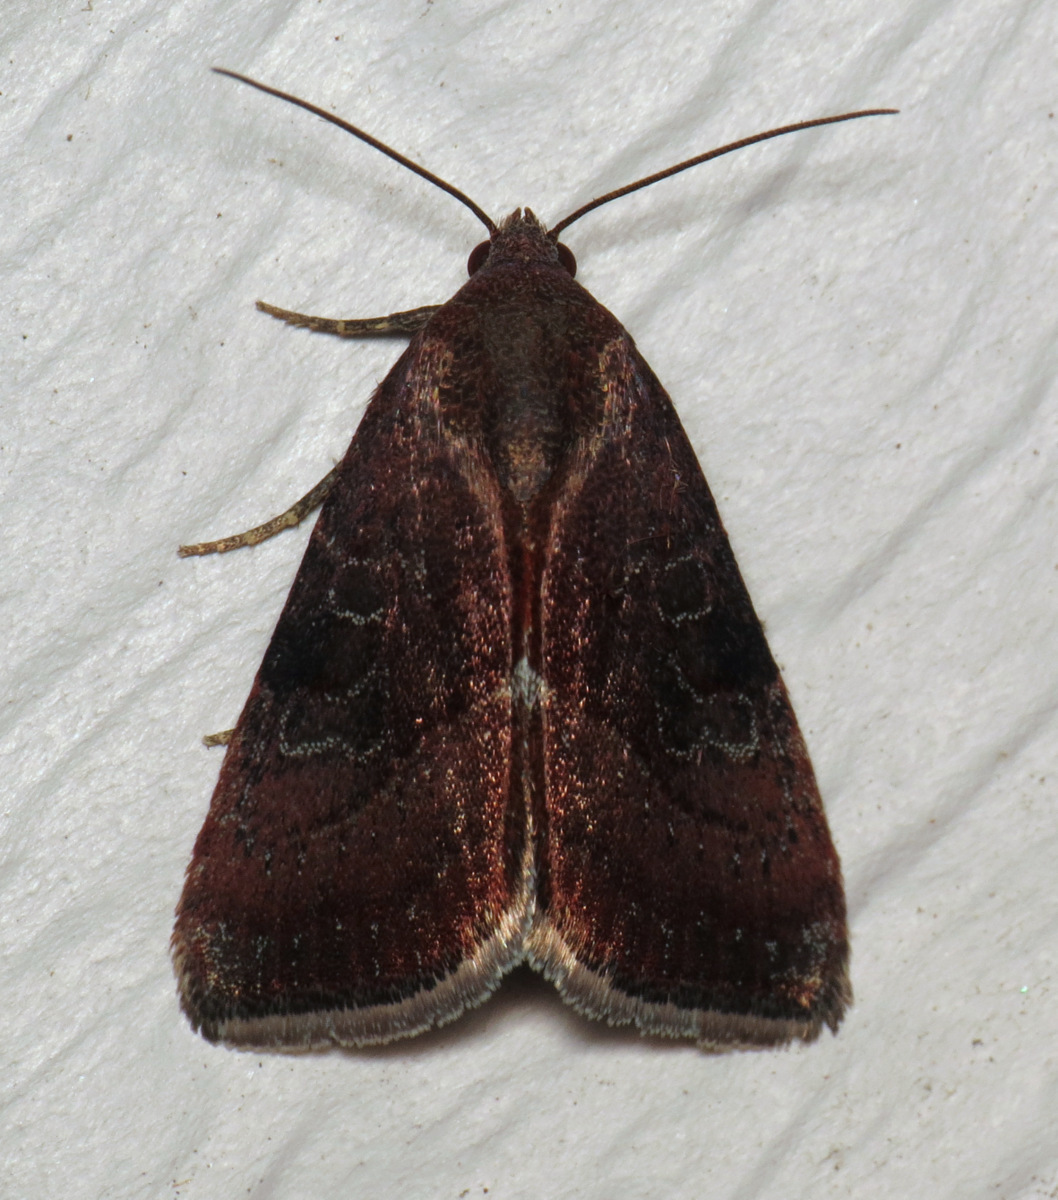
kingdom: Animalia
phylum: Arthropoda
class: Insecta
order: Lepidoptera
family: Noctuidae
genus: Galgula
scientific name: Galgula partita
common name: Wedgeling
